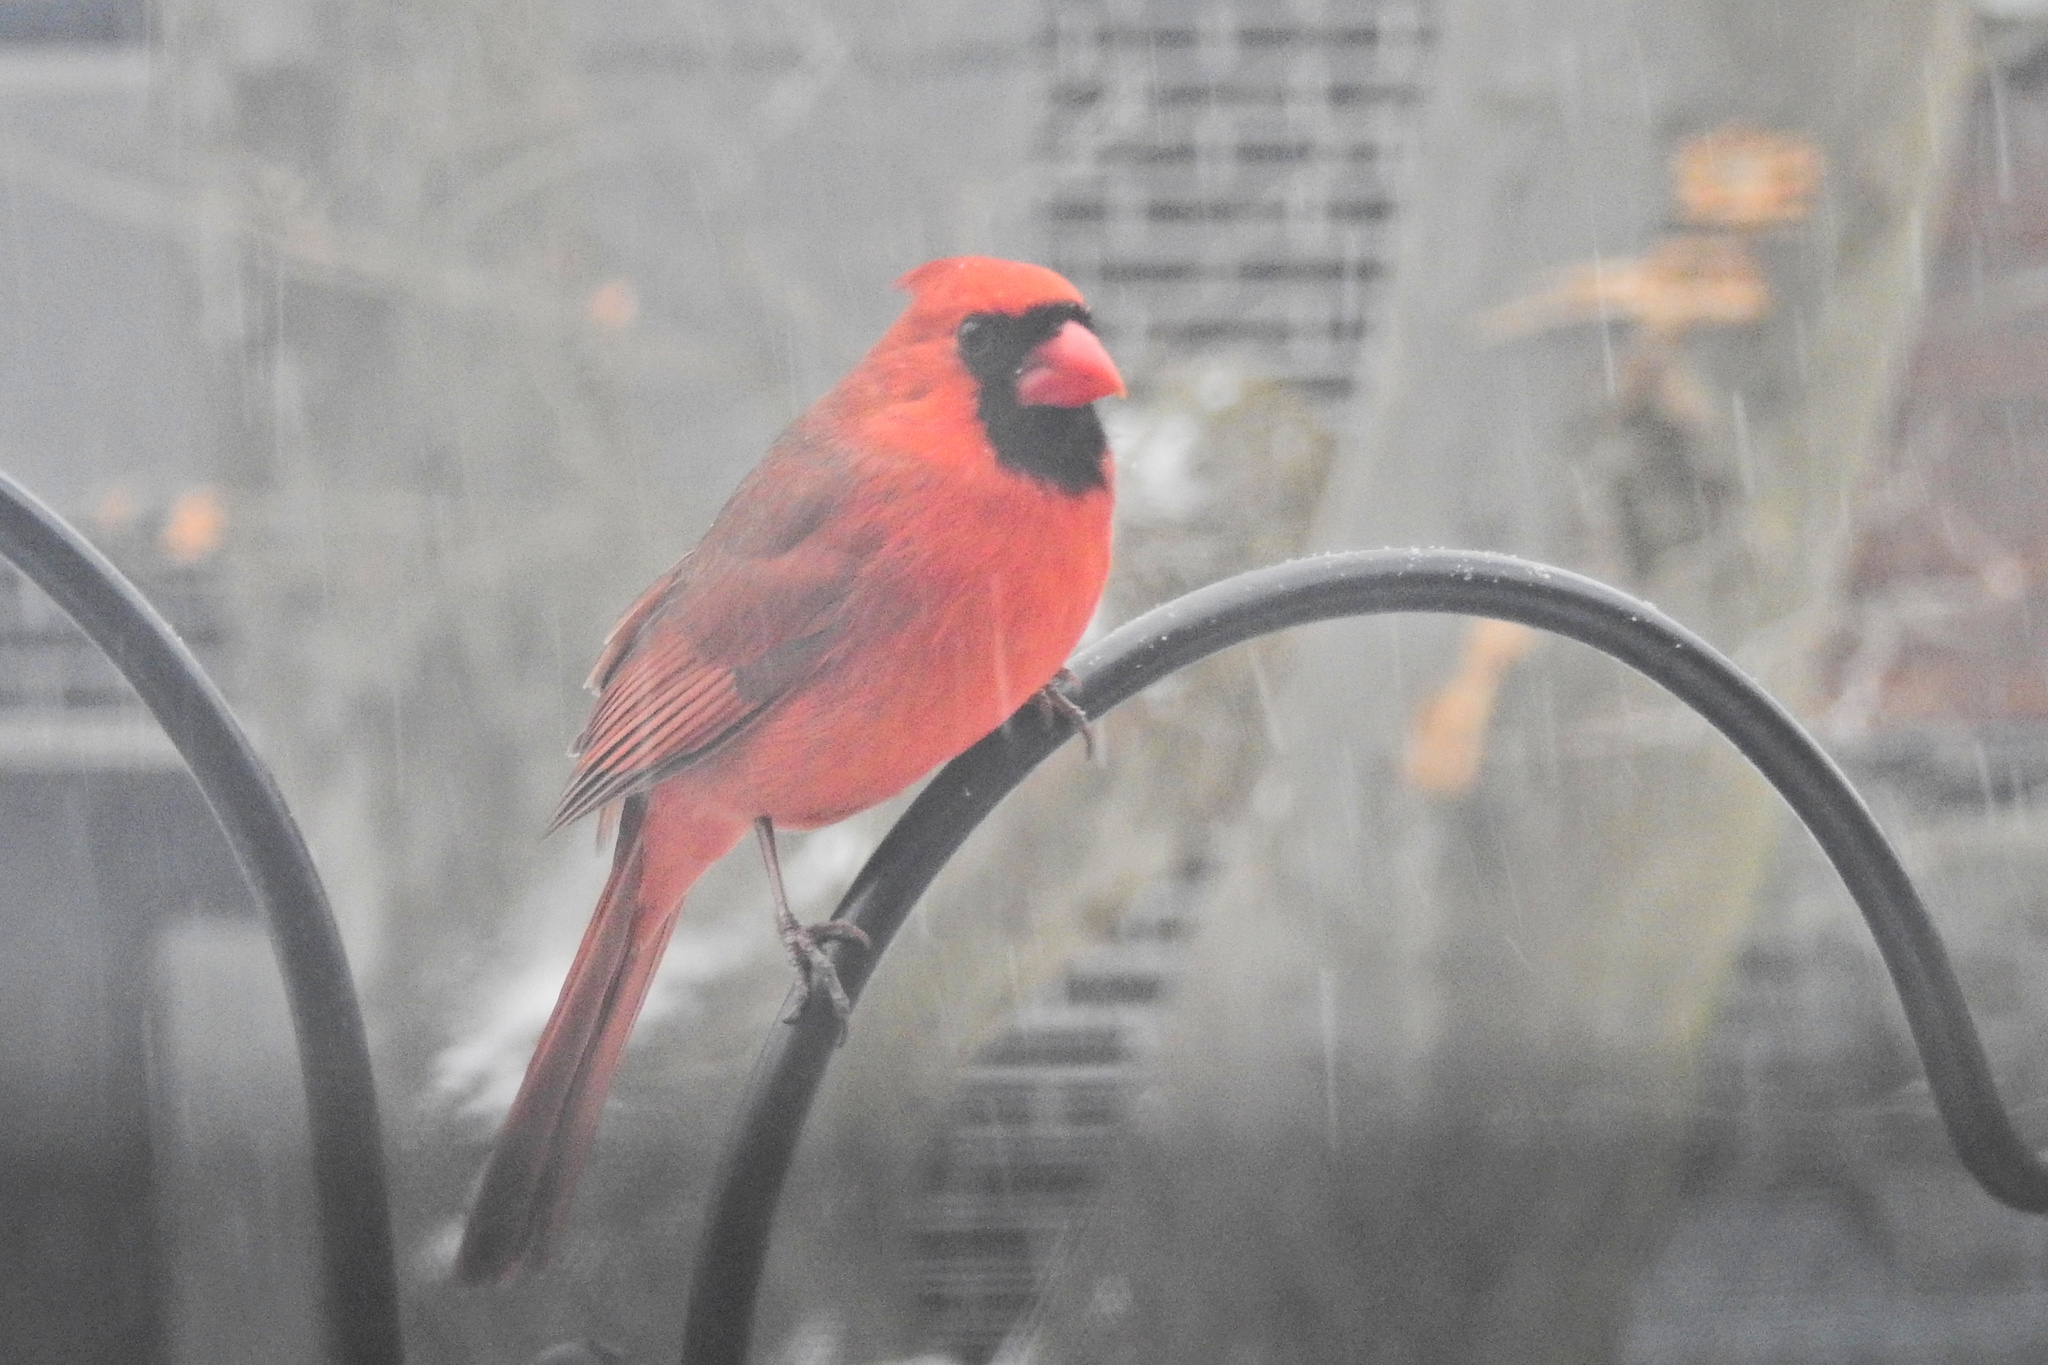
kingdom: Animalia
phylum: Chordata
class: Aves
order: Passeriformes
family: Cardinalidae
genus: Cardinalis
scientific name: Cardinalis cardinalis
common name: Northern cardinal
